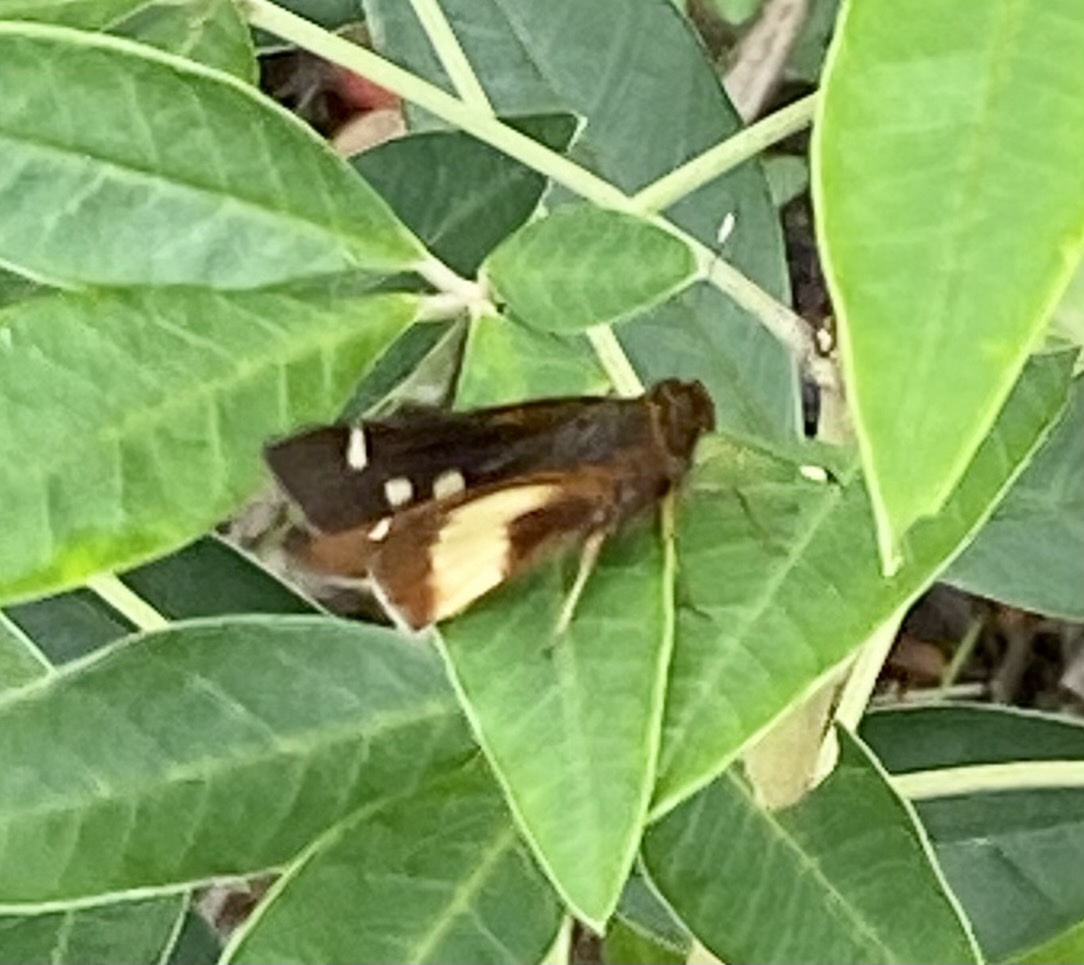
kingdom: Animalia
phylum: Arthropoda
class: Insecta
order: Lepidoptera
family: Hesperiidae
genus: Vettius
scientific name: Vettius ploetzii
